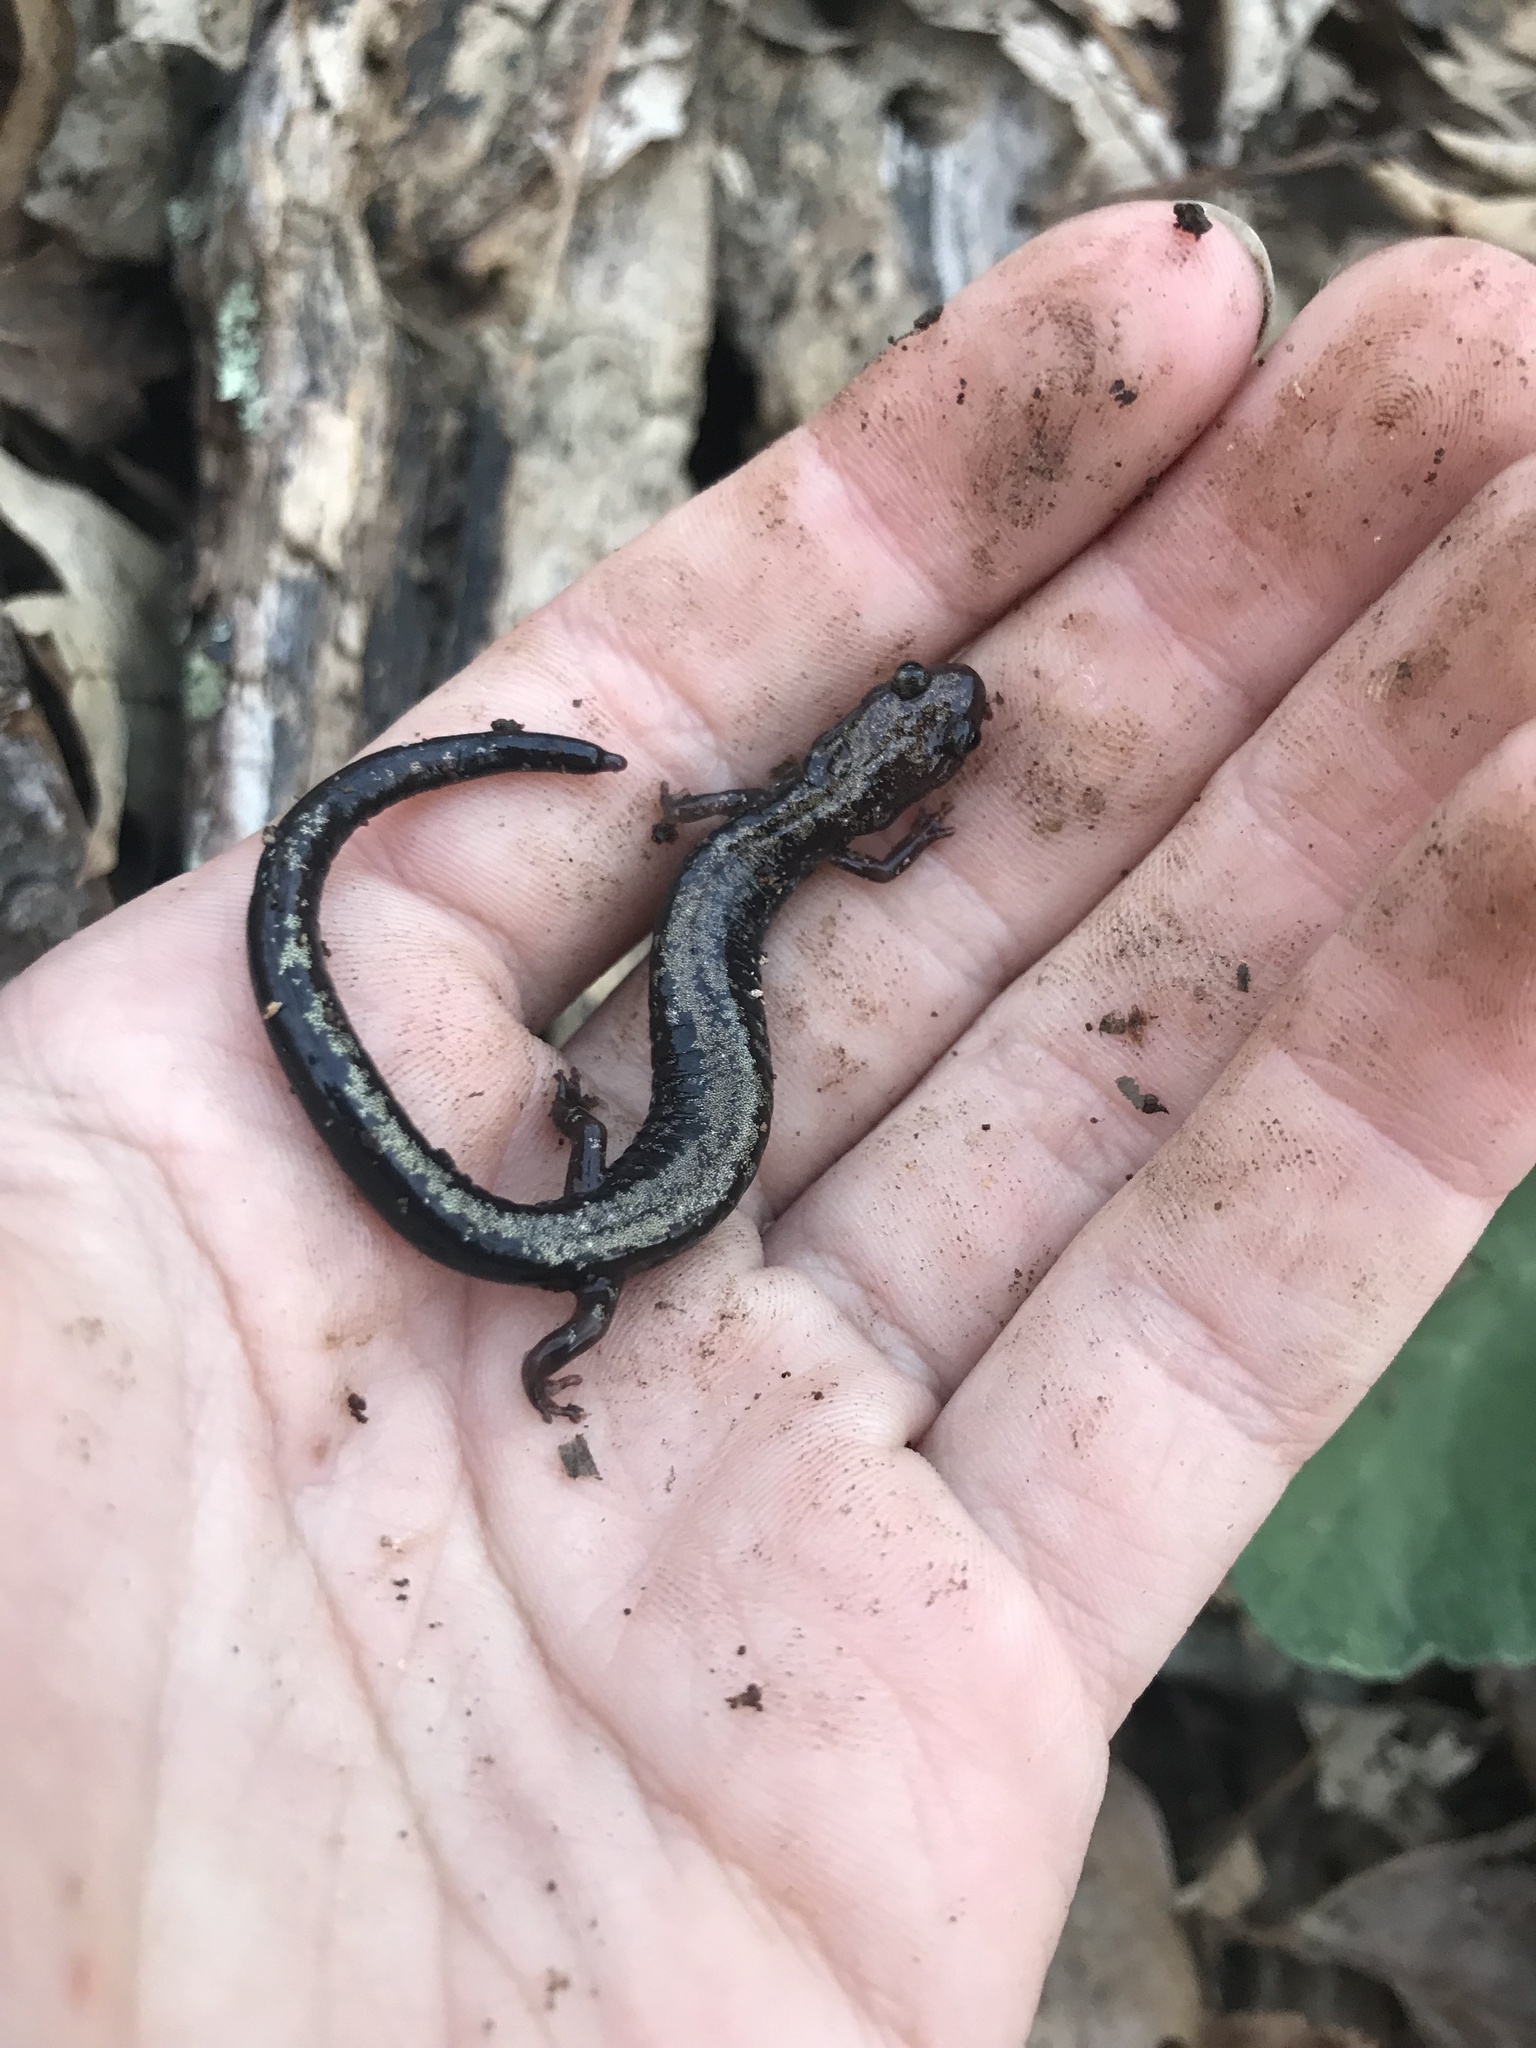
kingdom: Animalia
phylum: Chordata
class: Amphibia
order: Caudata
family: Plethodontidae
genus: Plethodon
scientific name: Plethodon hubrichti
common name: Peaks of otter salamander
